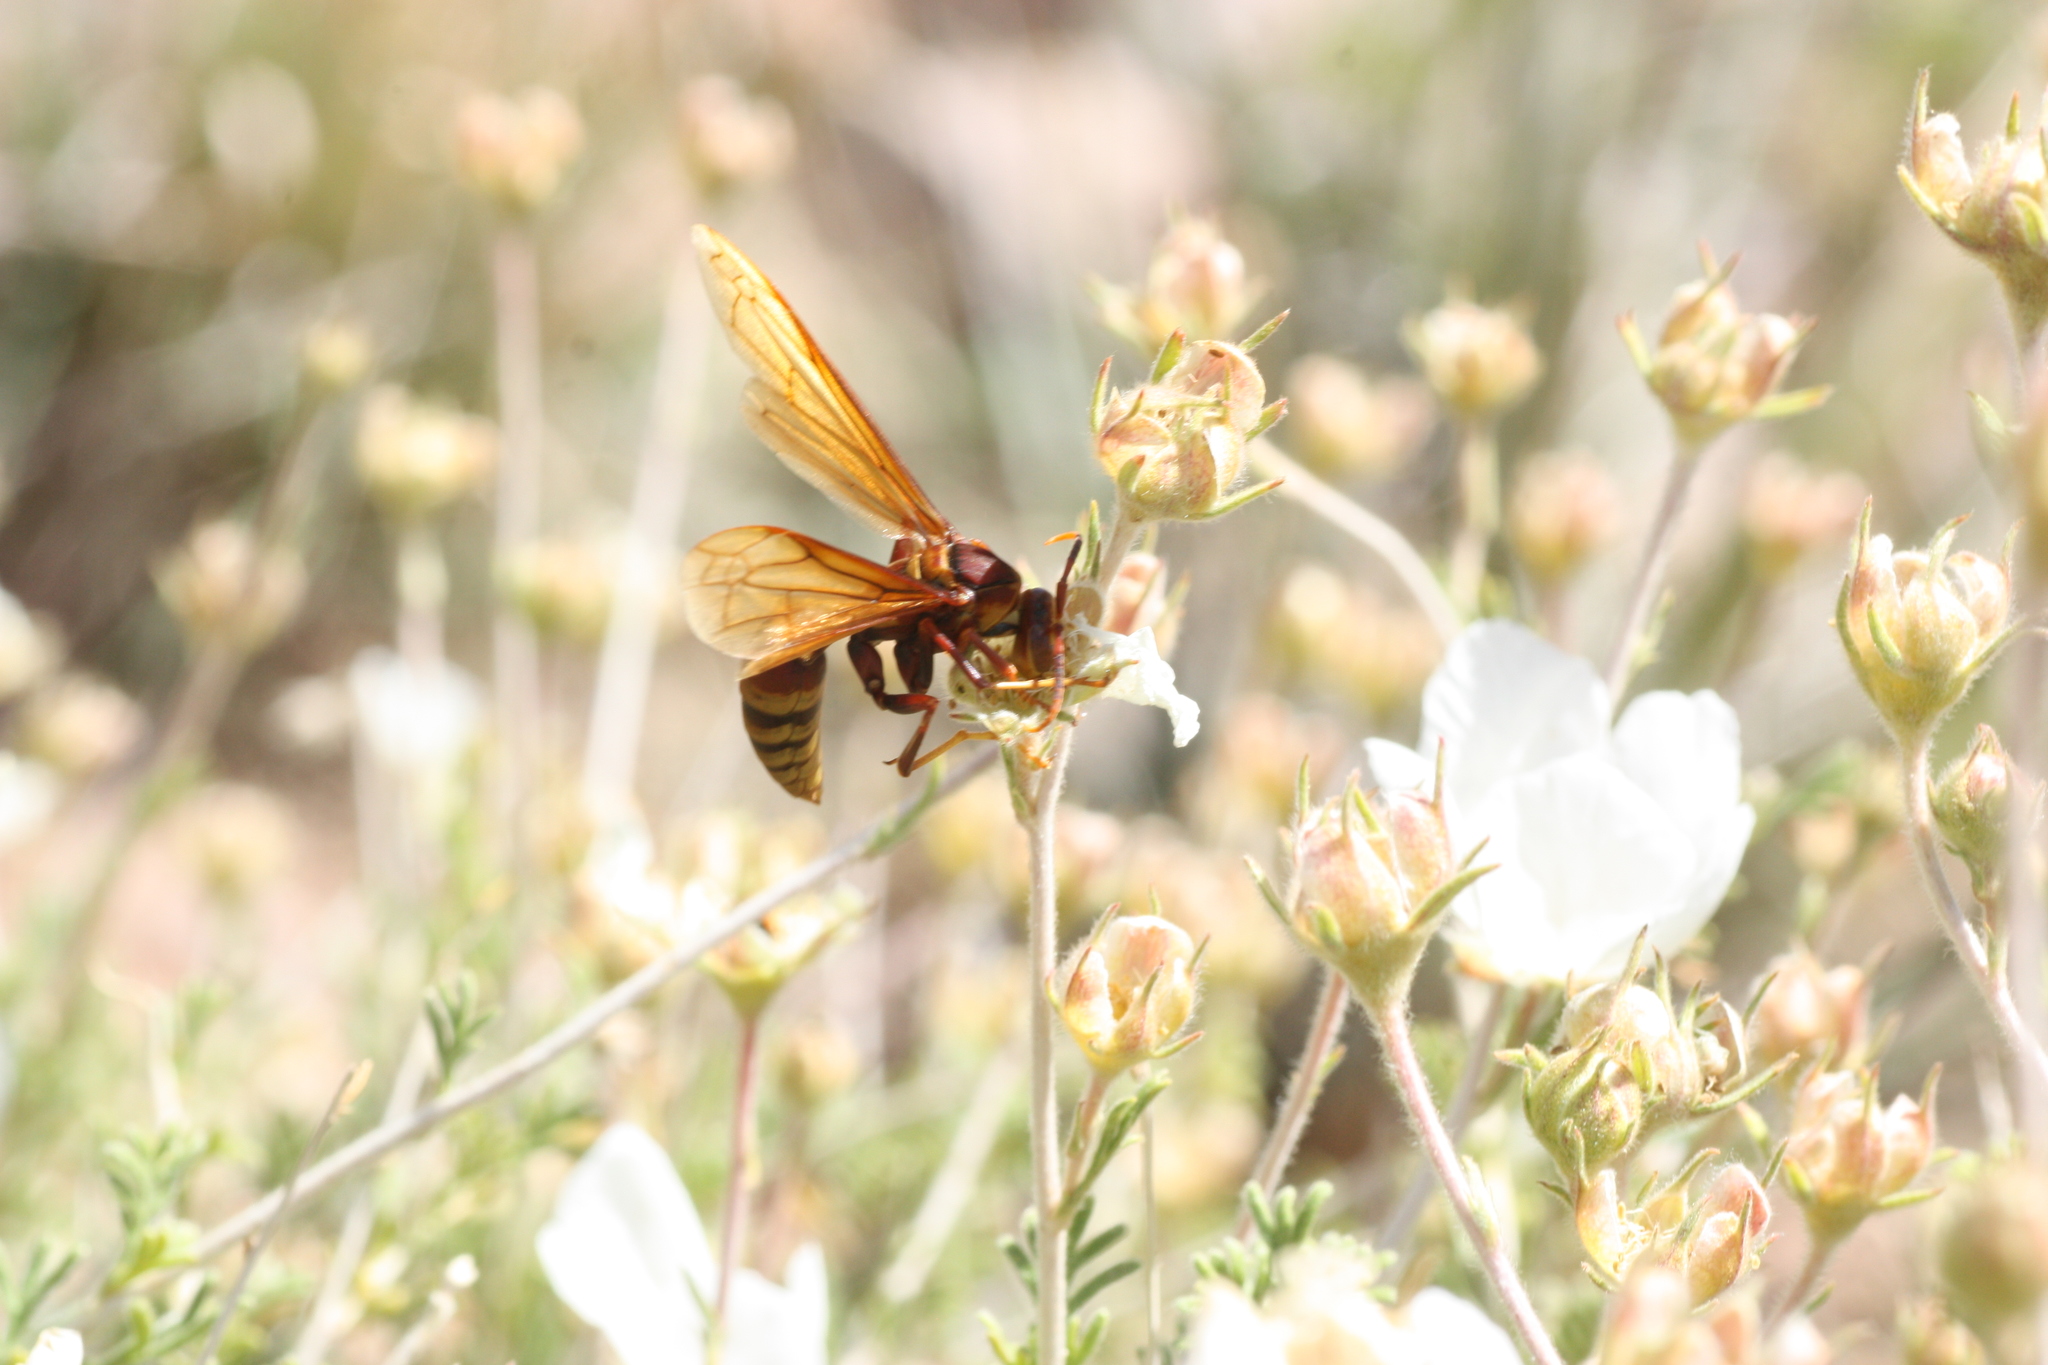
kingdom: Animalia
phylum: Arthropoda
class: Insecta
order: Hymenoptera
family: Eumenidae
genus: Polistes
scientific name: Polistes major
